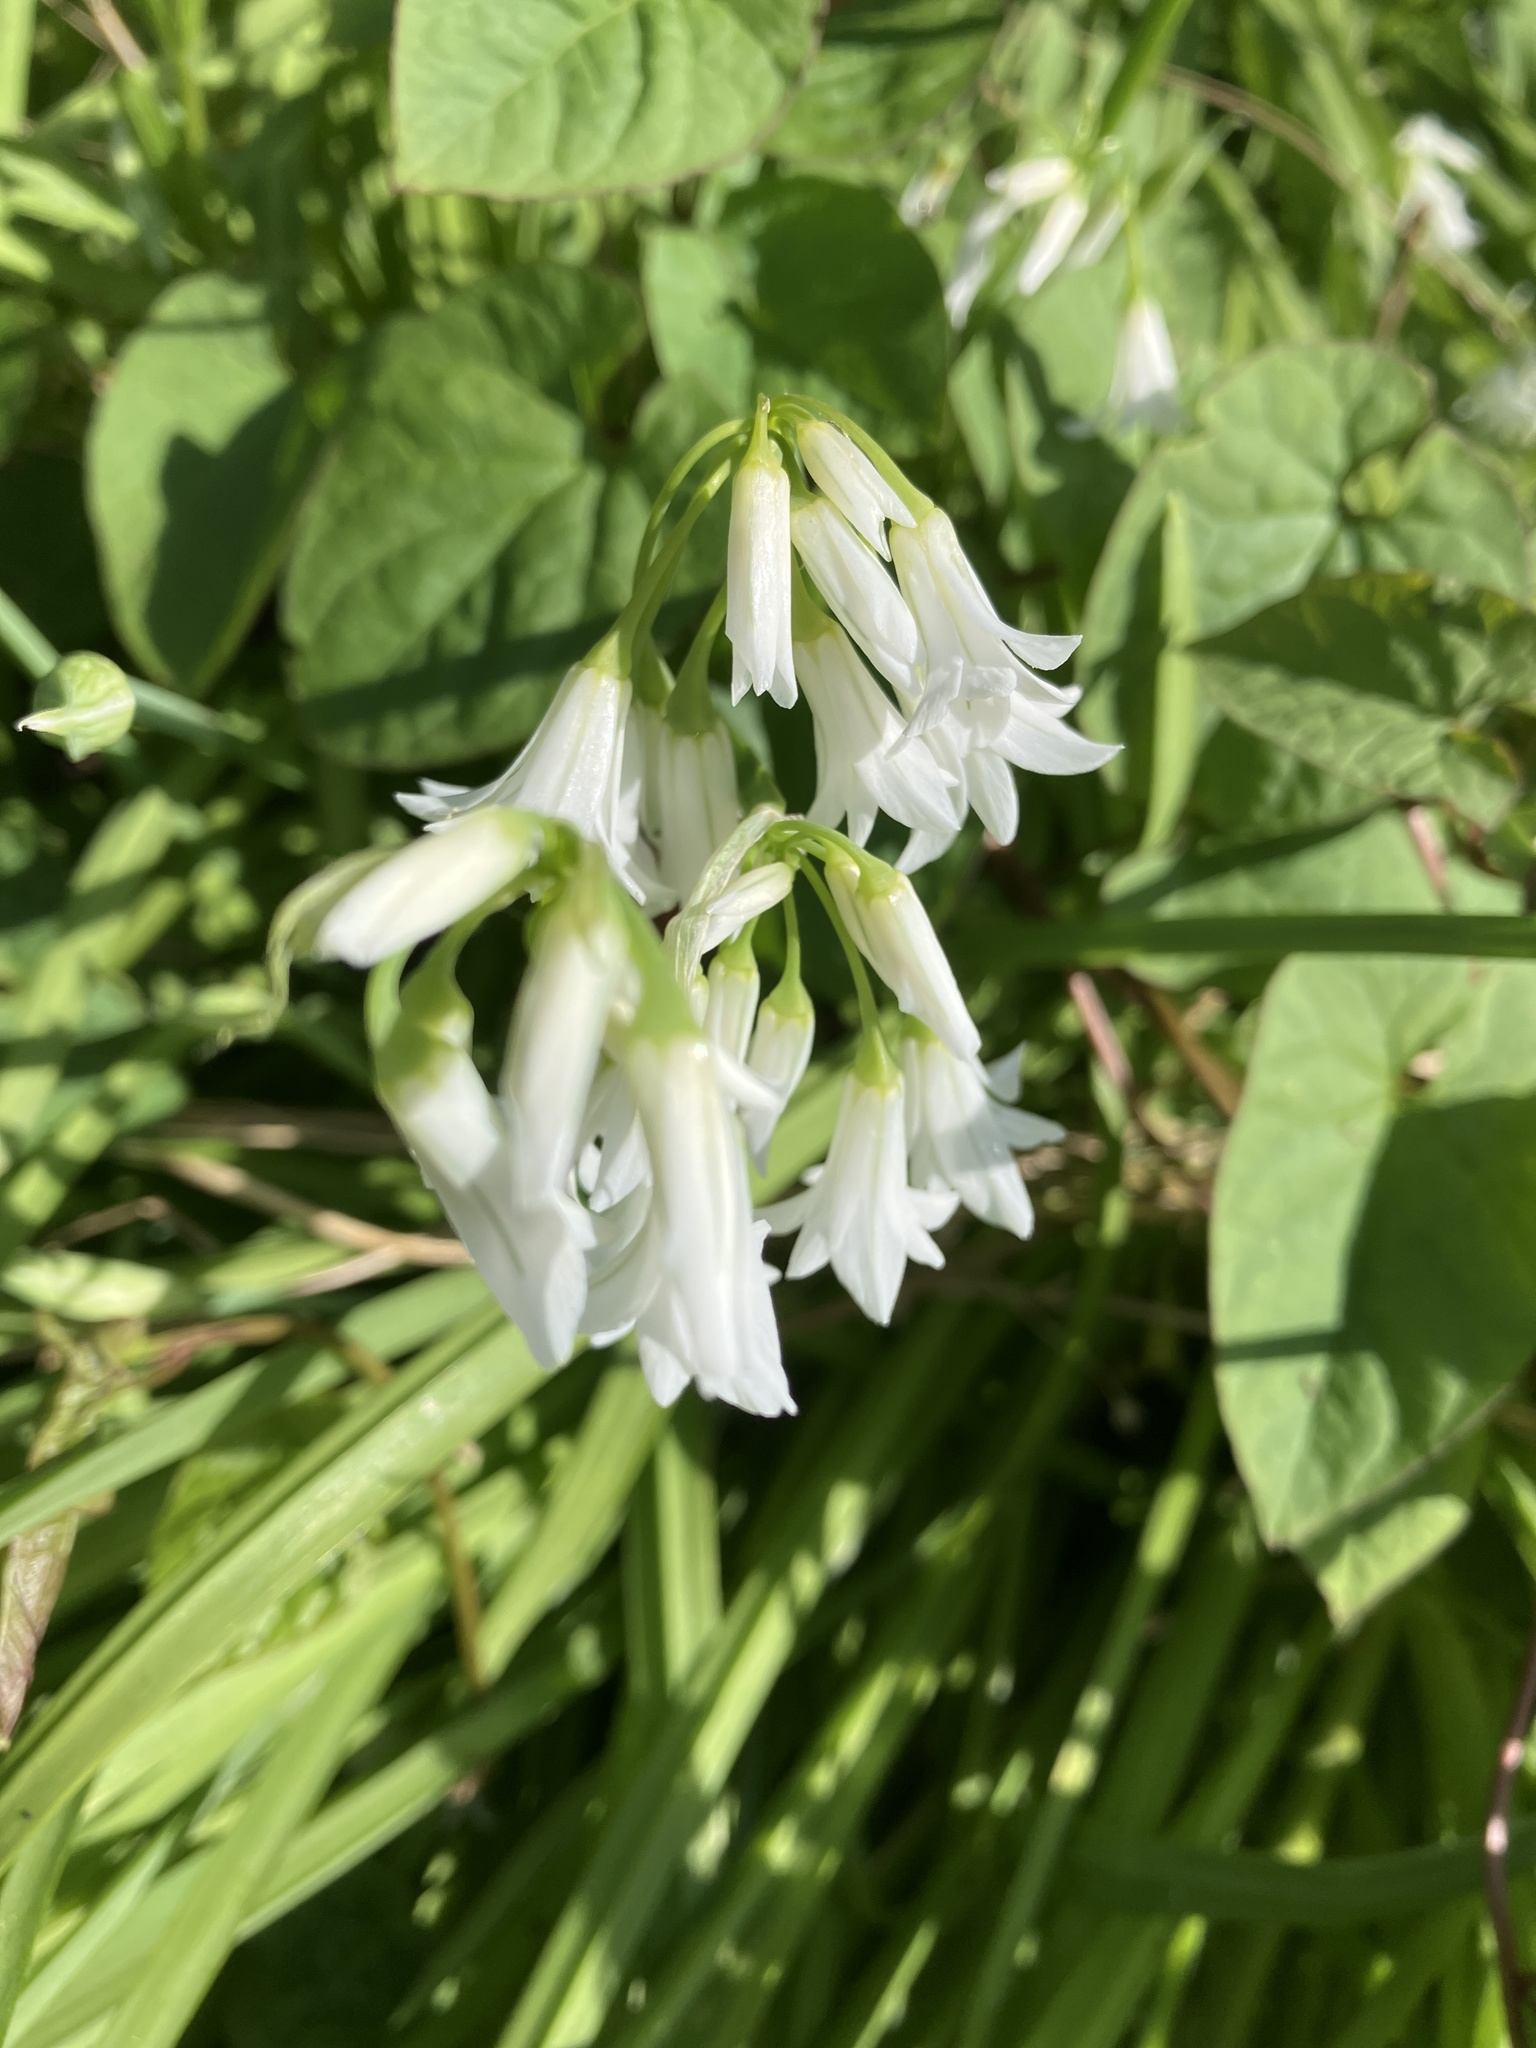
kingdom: Plantae
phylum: Tracheophyta
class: Liliopsida
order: Asparagales
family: Amaryllidaceae
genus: Allium
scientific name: Allium triquetrum
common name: Three-cornered garlic
